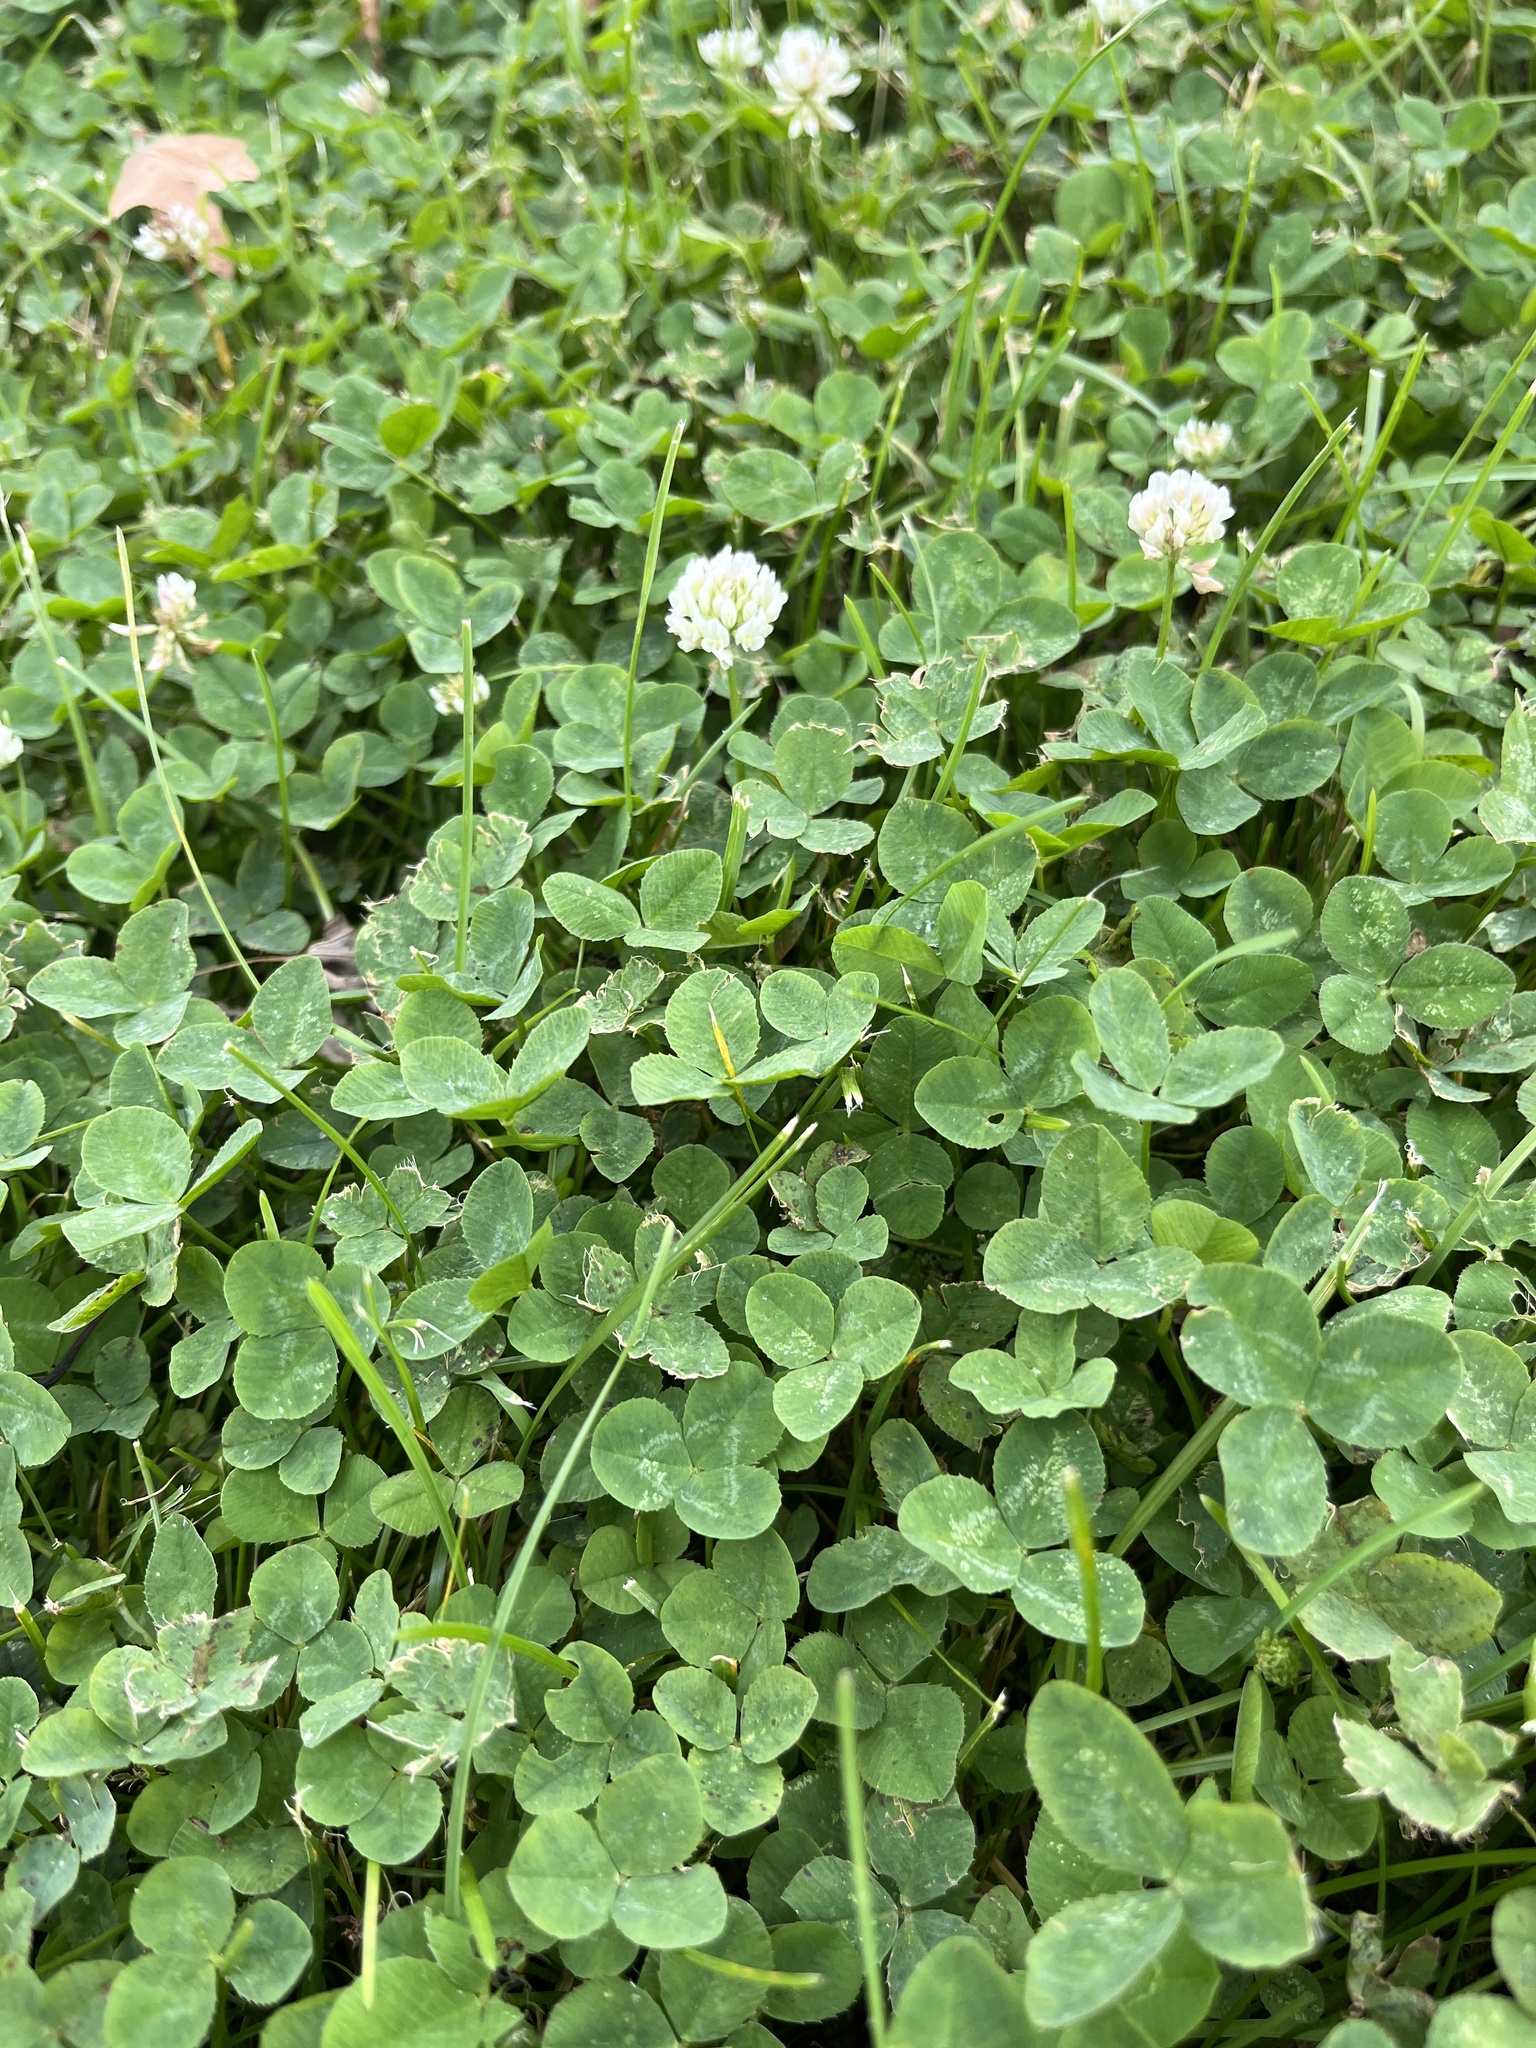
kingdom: Plantae
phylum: Tracheophyta
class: Magnoliopsida
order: Fabales
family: Fabaceae
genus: Trifolium
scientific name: Trifolium repens
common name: White clover
